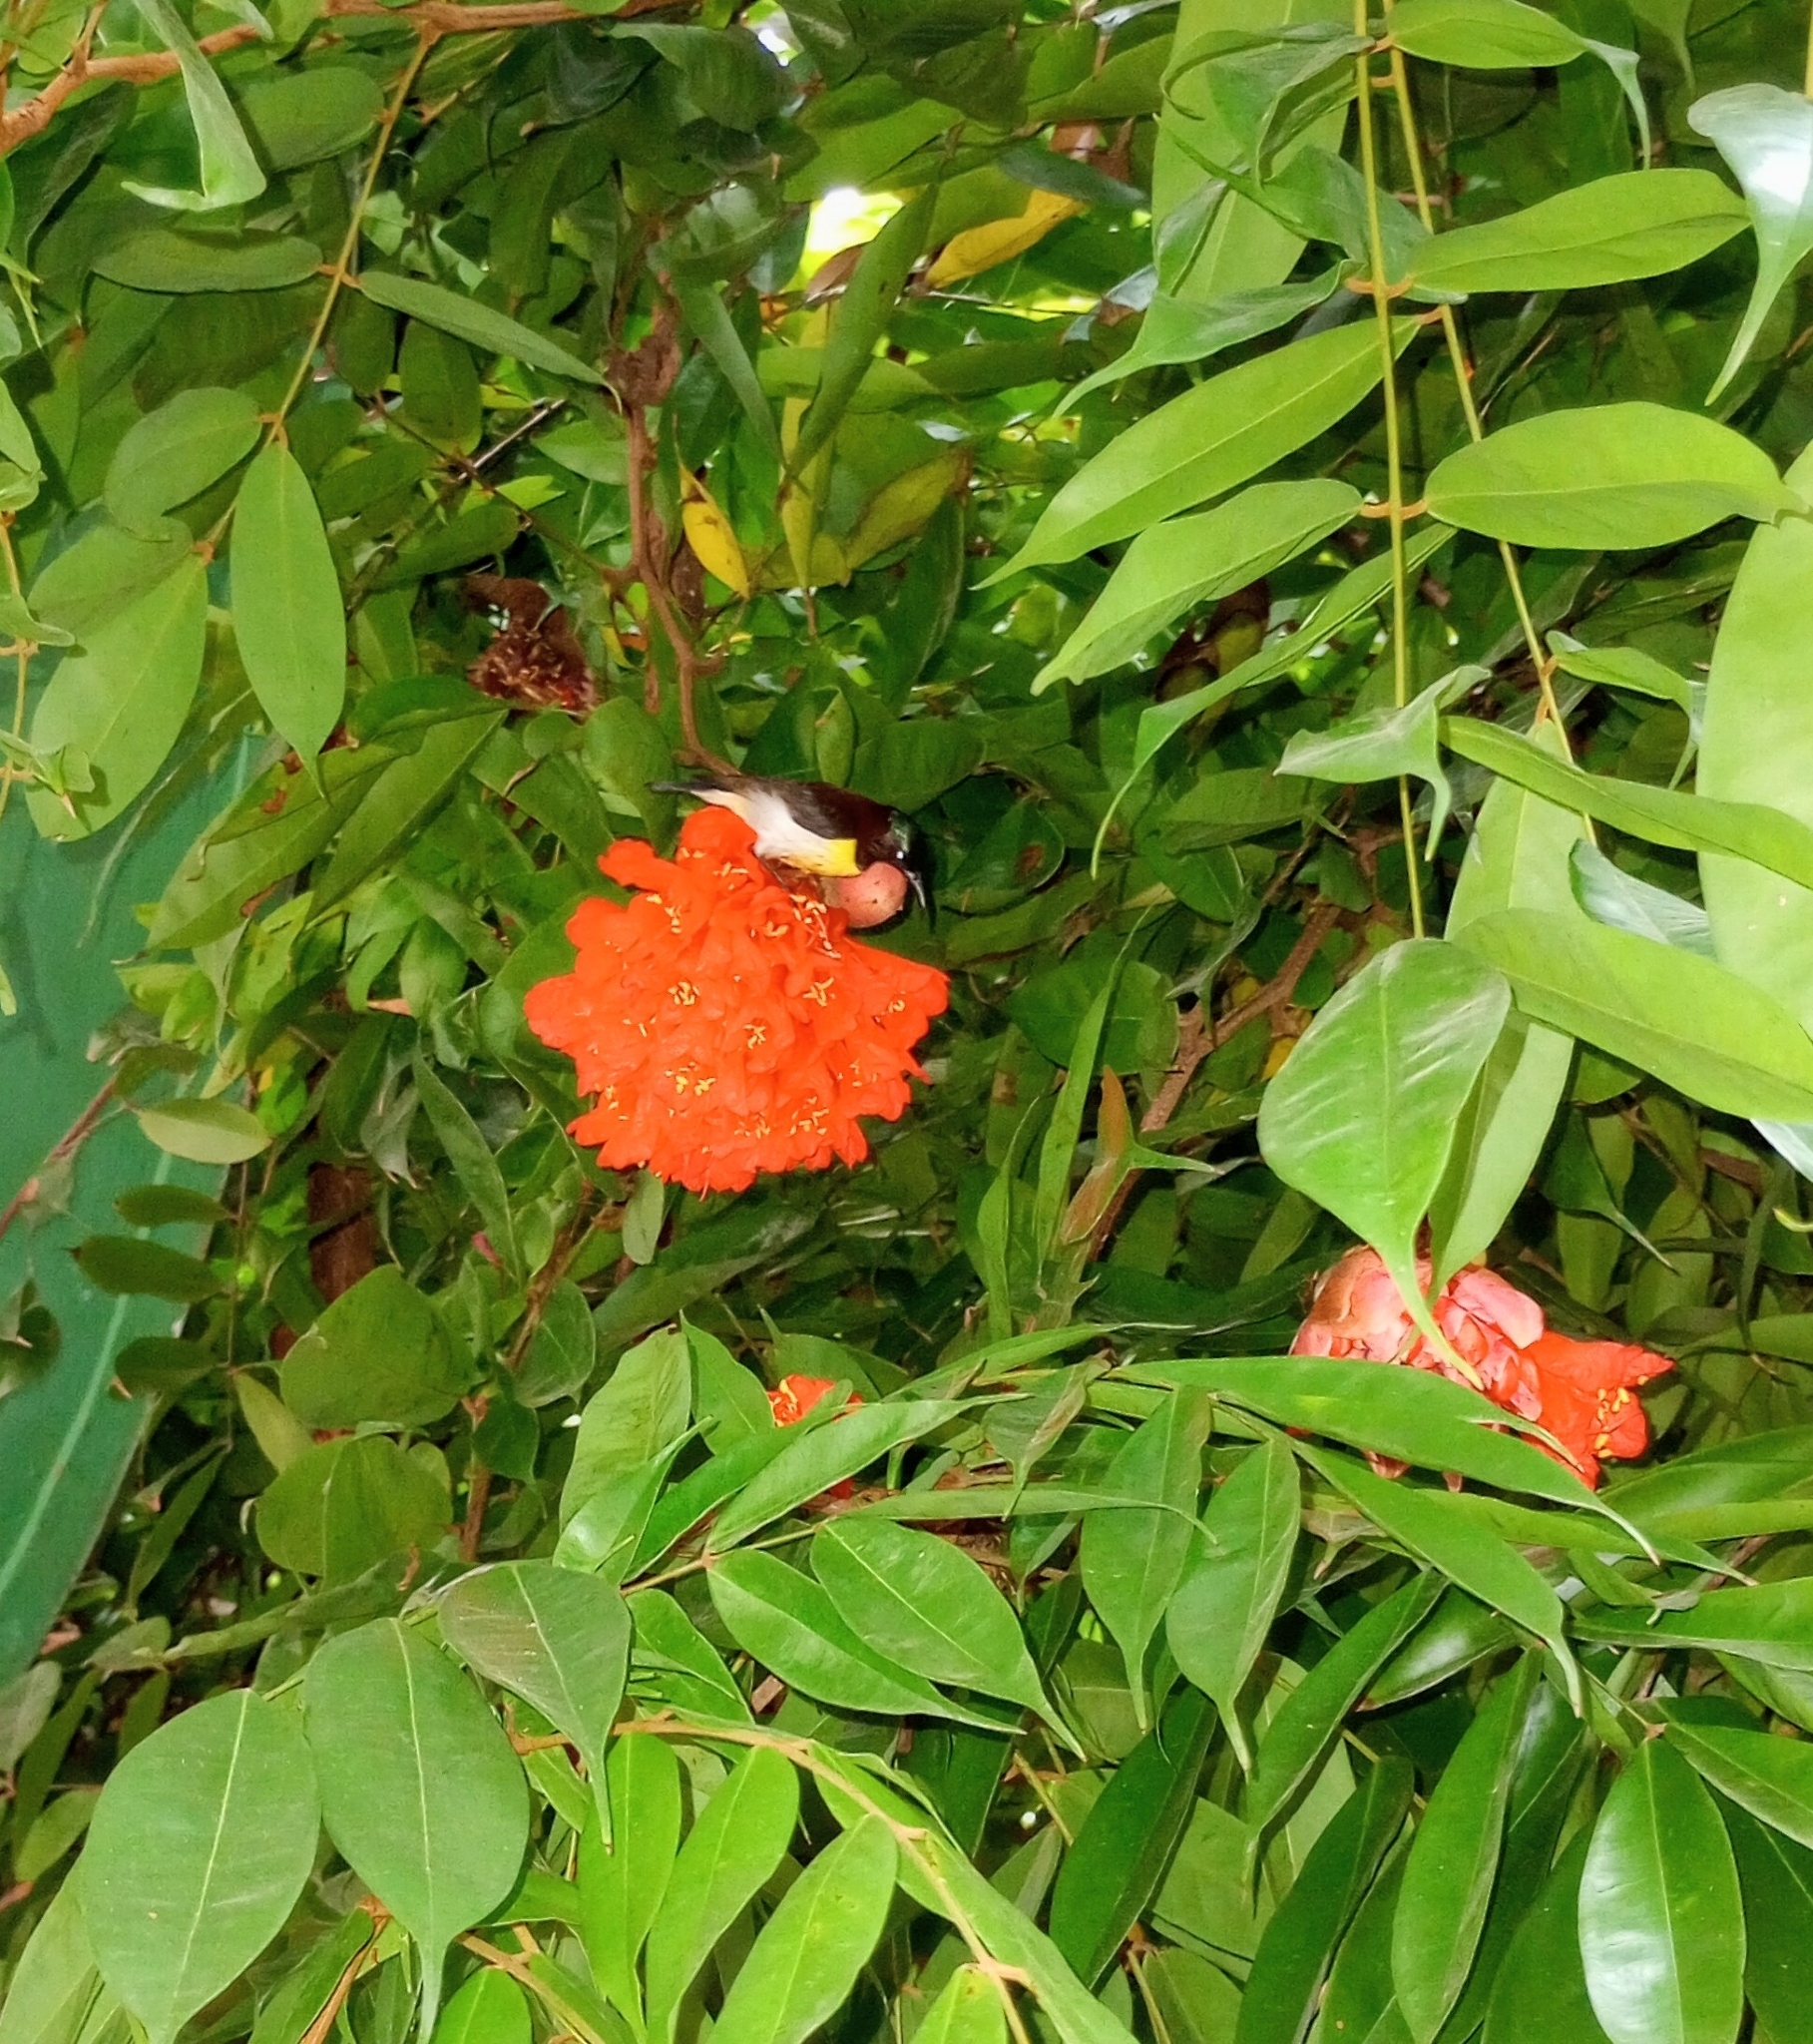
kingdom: Animalia
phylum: Chordata
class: Aves
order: Passeriformes
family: Nectariniidae
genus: Leptocoma
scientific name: Leptocoma zeylonica
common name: Purple-rumped sunbird
